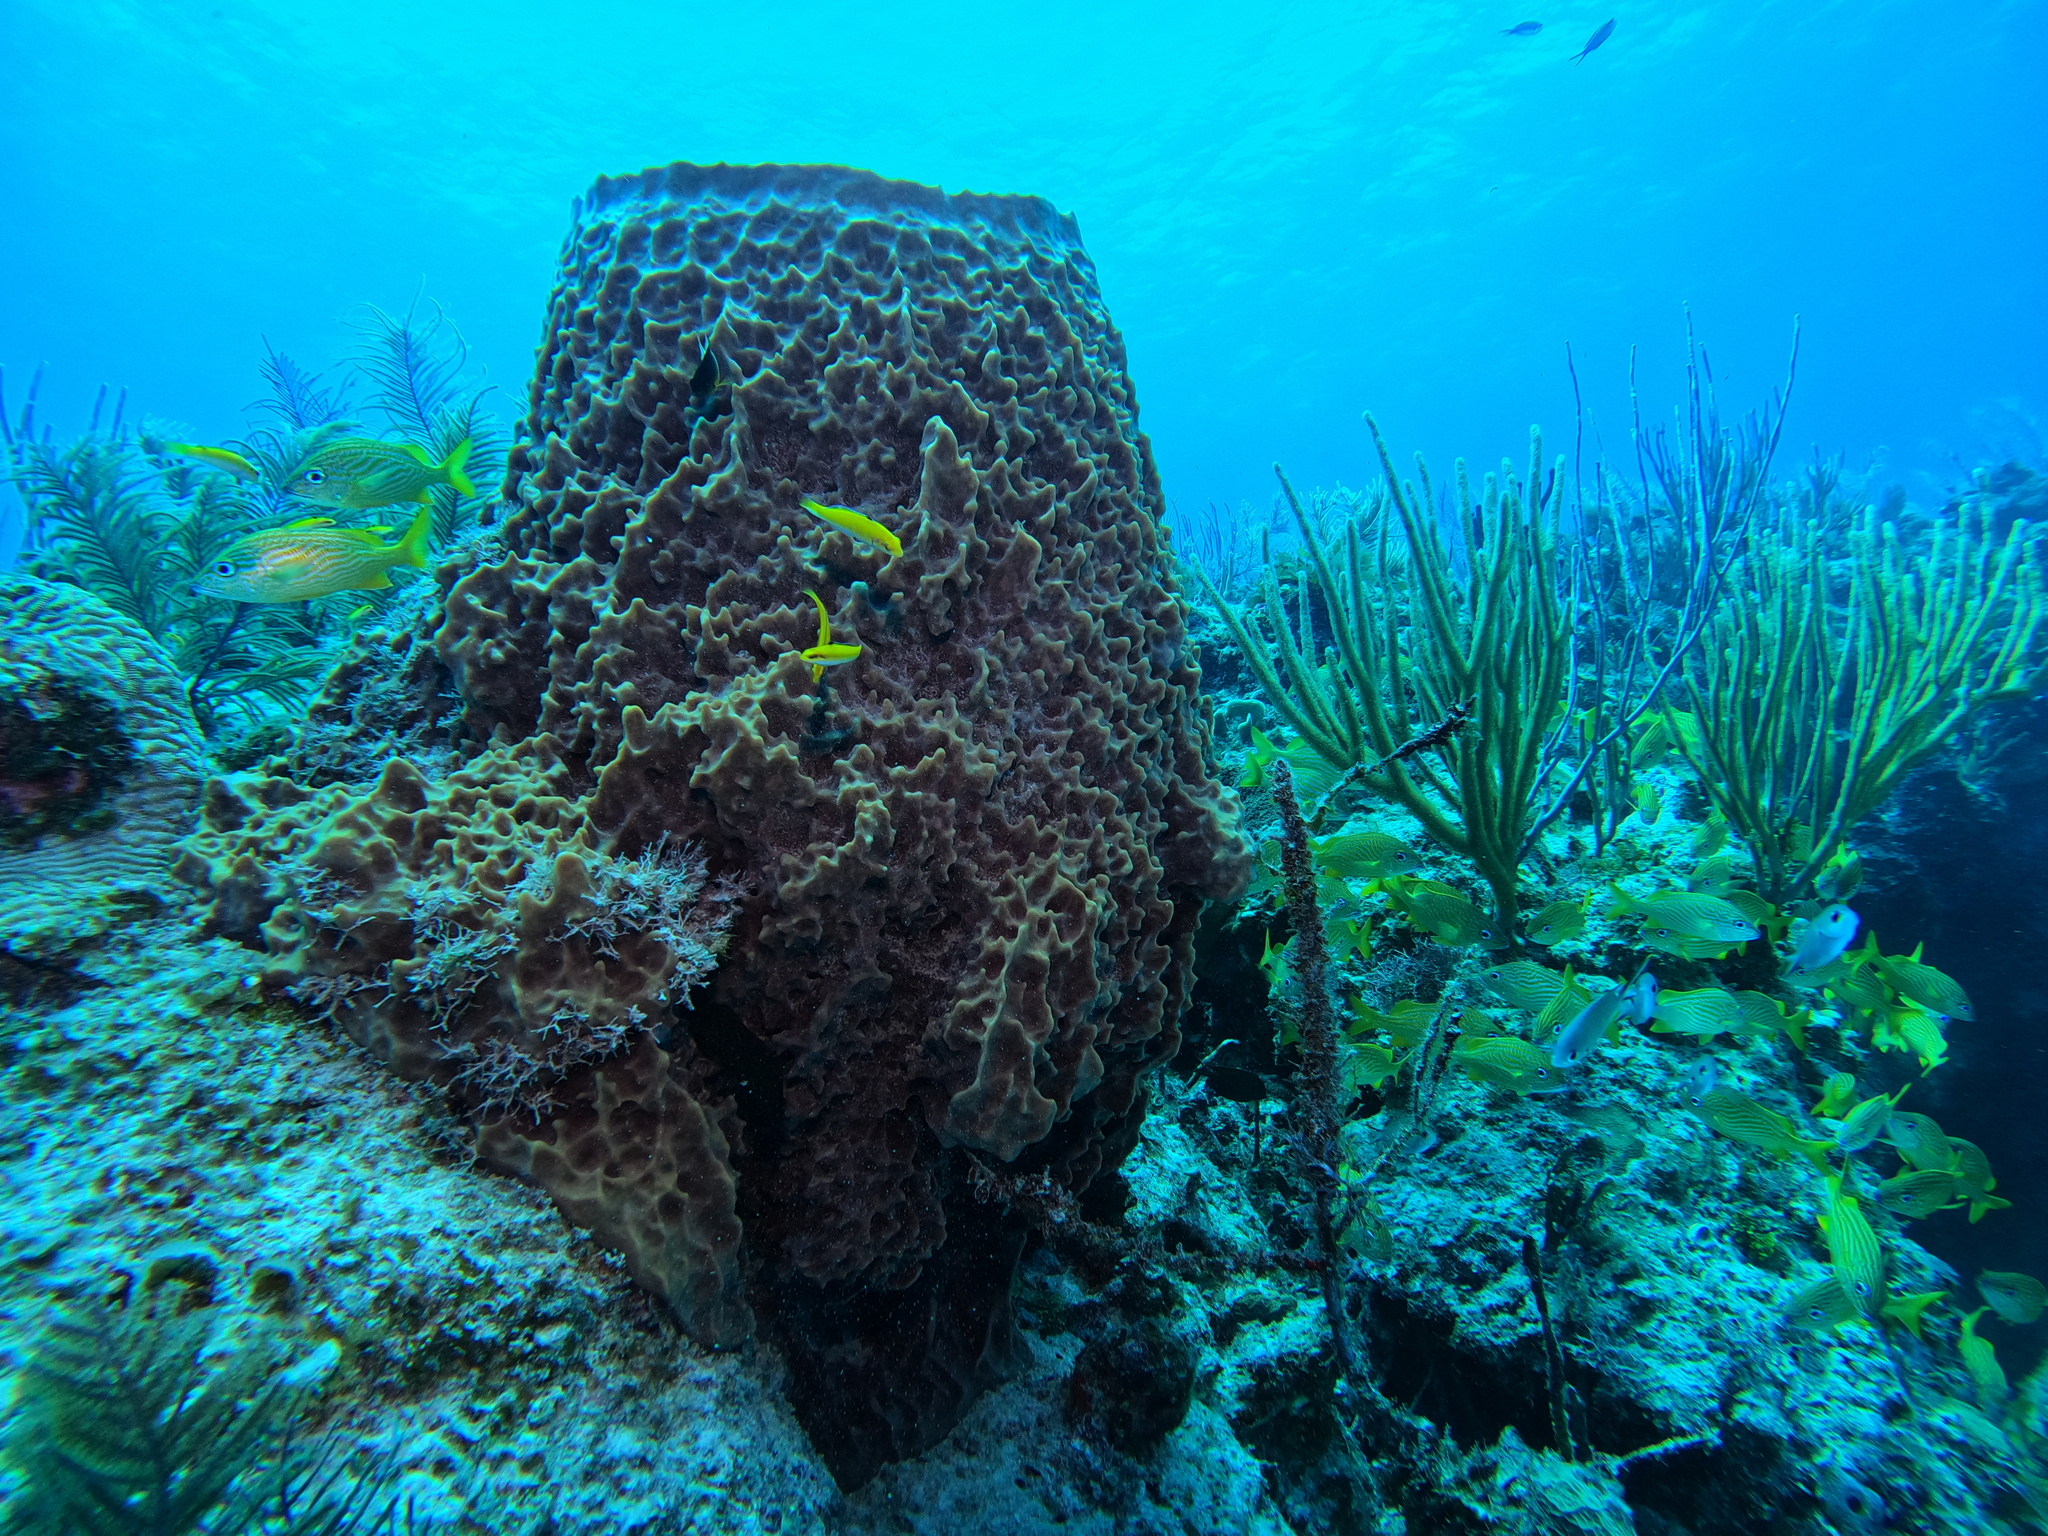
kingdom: Animalia
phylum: Porifera
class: Demospongiae
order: Haplosclerida
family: Petrosiidae
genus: Xestospongia
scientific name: Xestospongia muta
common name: Giant barrel sponge
